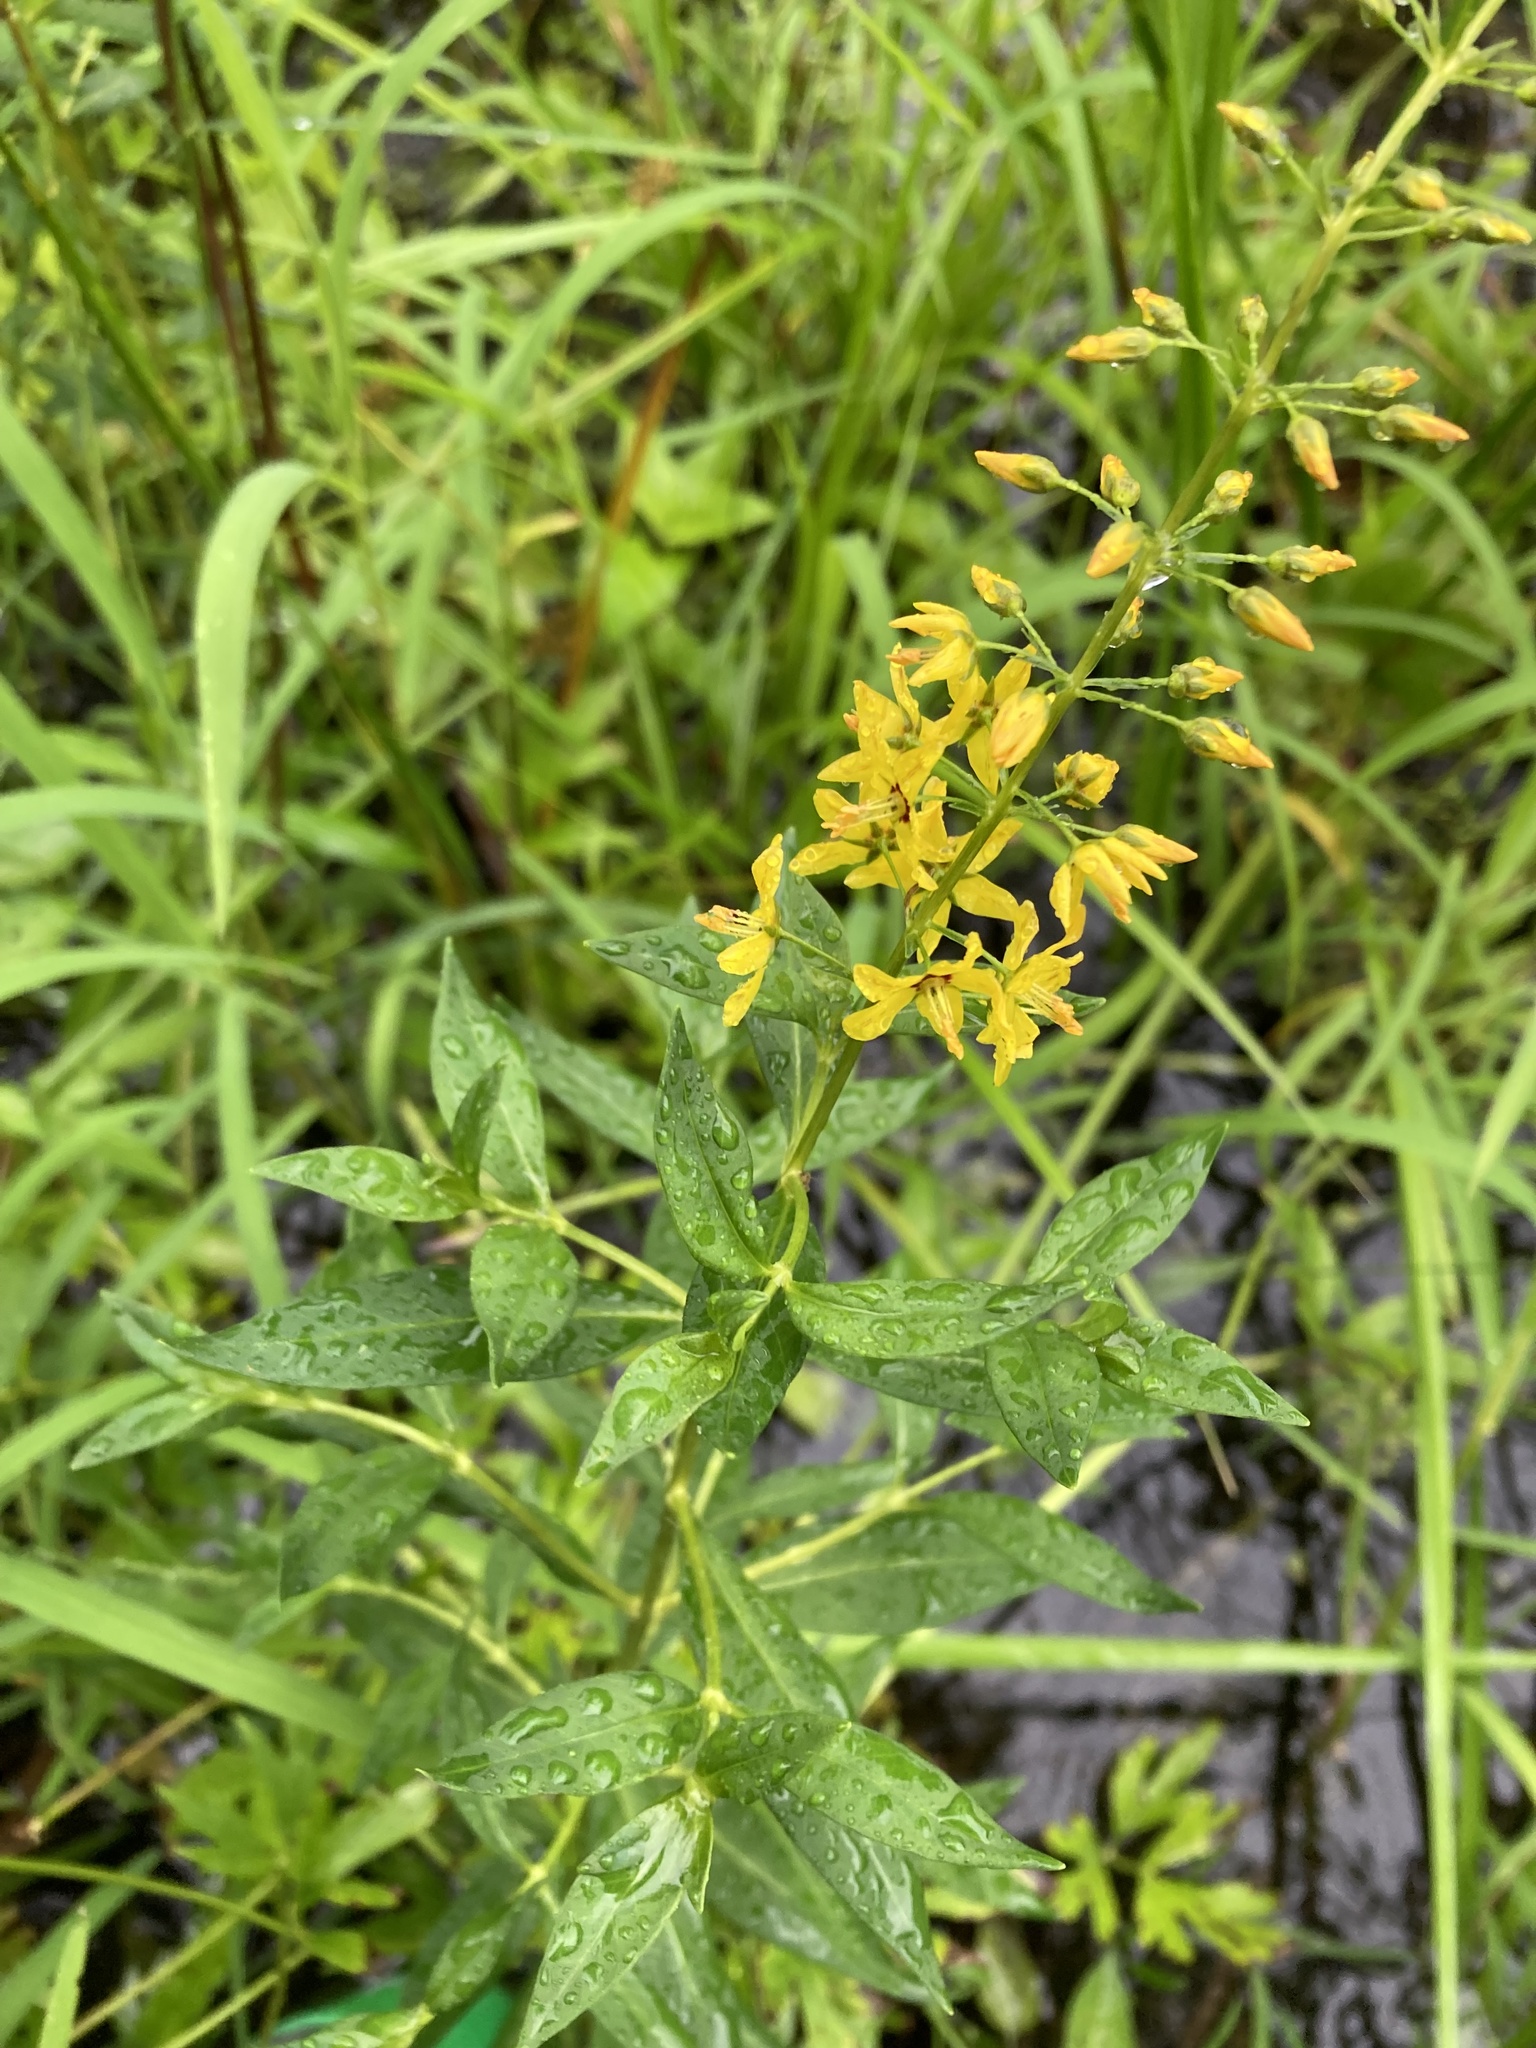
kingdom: Plantae
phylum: Tracheophyta
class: Magnoliopsida
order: Ericales
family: Primulaceae
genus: Lysimachia
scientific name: Lysimachia terrestris
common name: Lake loosestrife
